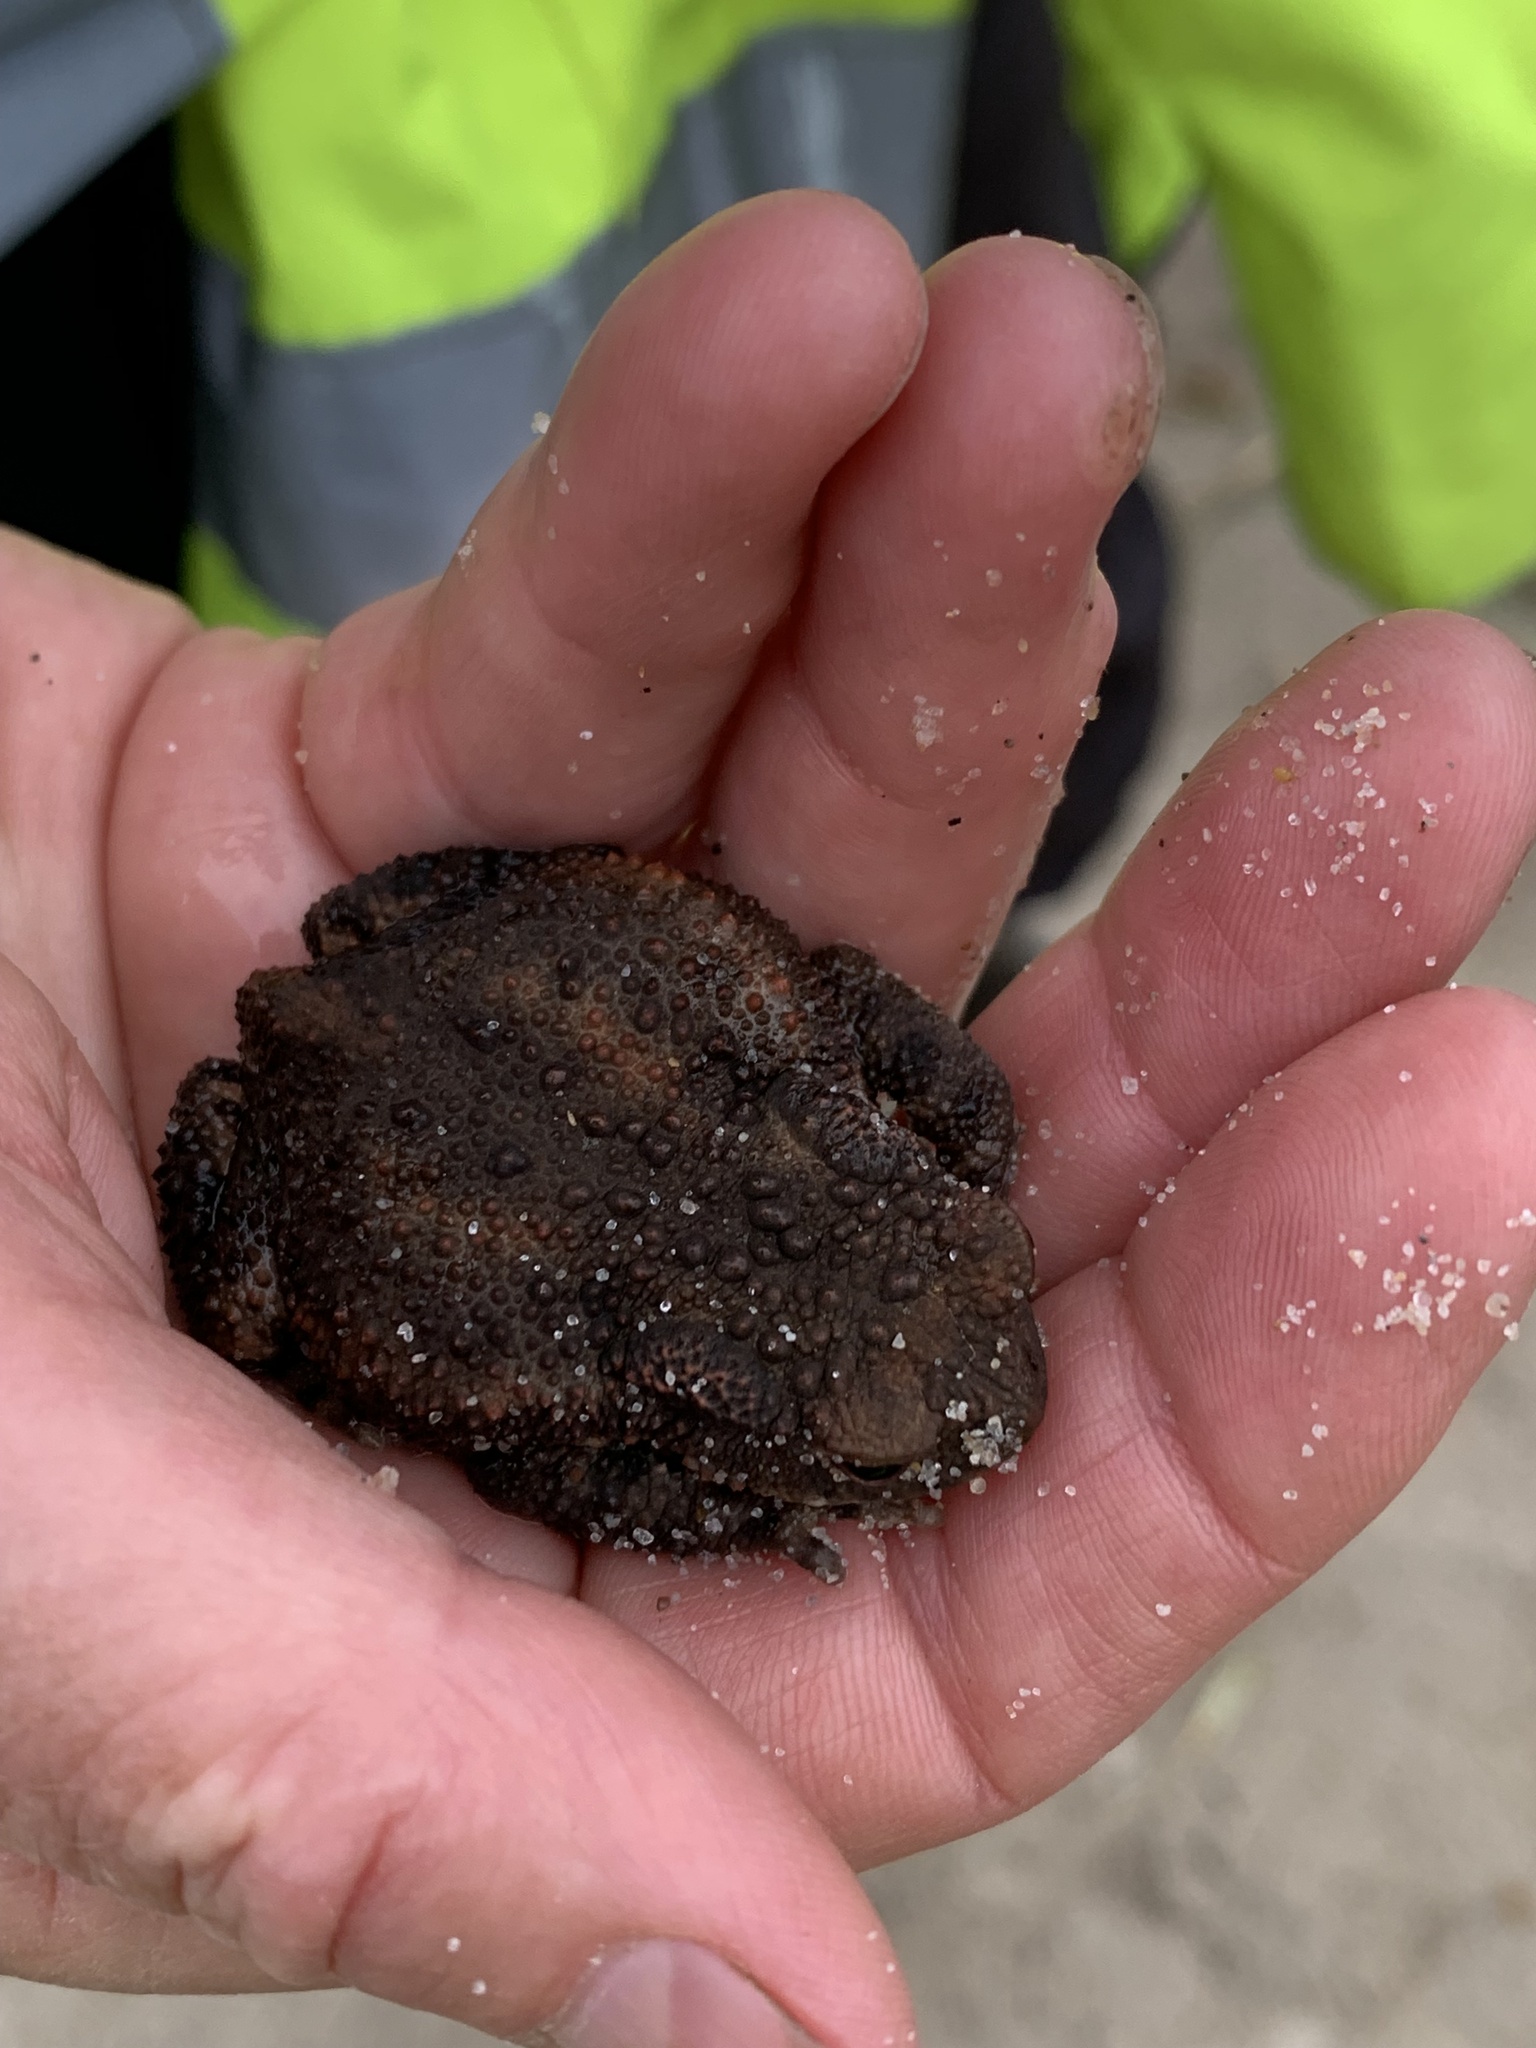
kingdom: Animalia
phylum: Chordata
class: Amphibia
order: Anura
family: Bufonidae
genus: Bufo
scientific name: Bufo bufo
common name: Common toad
